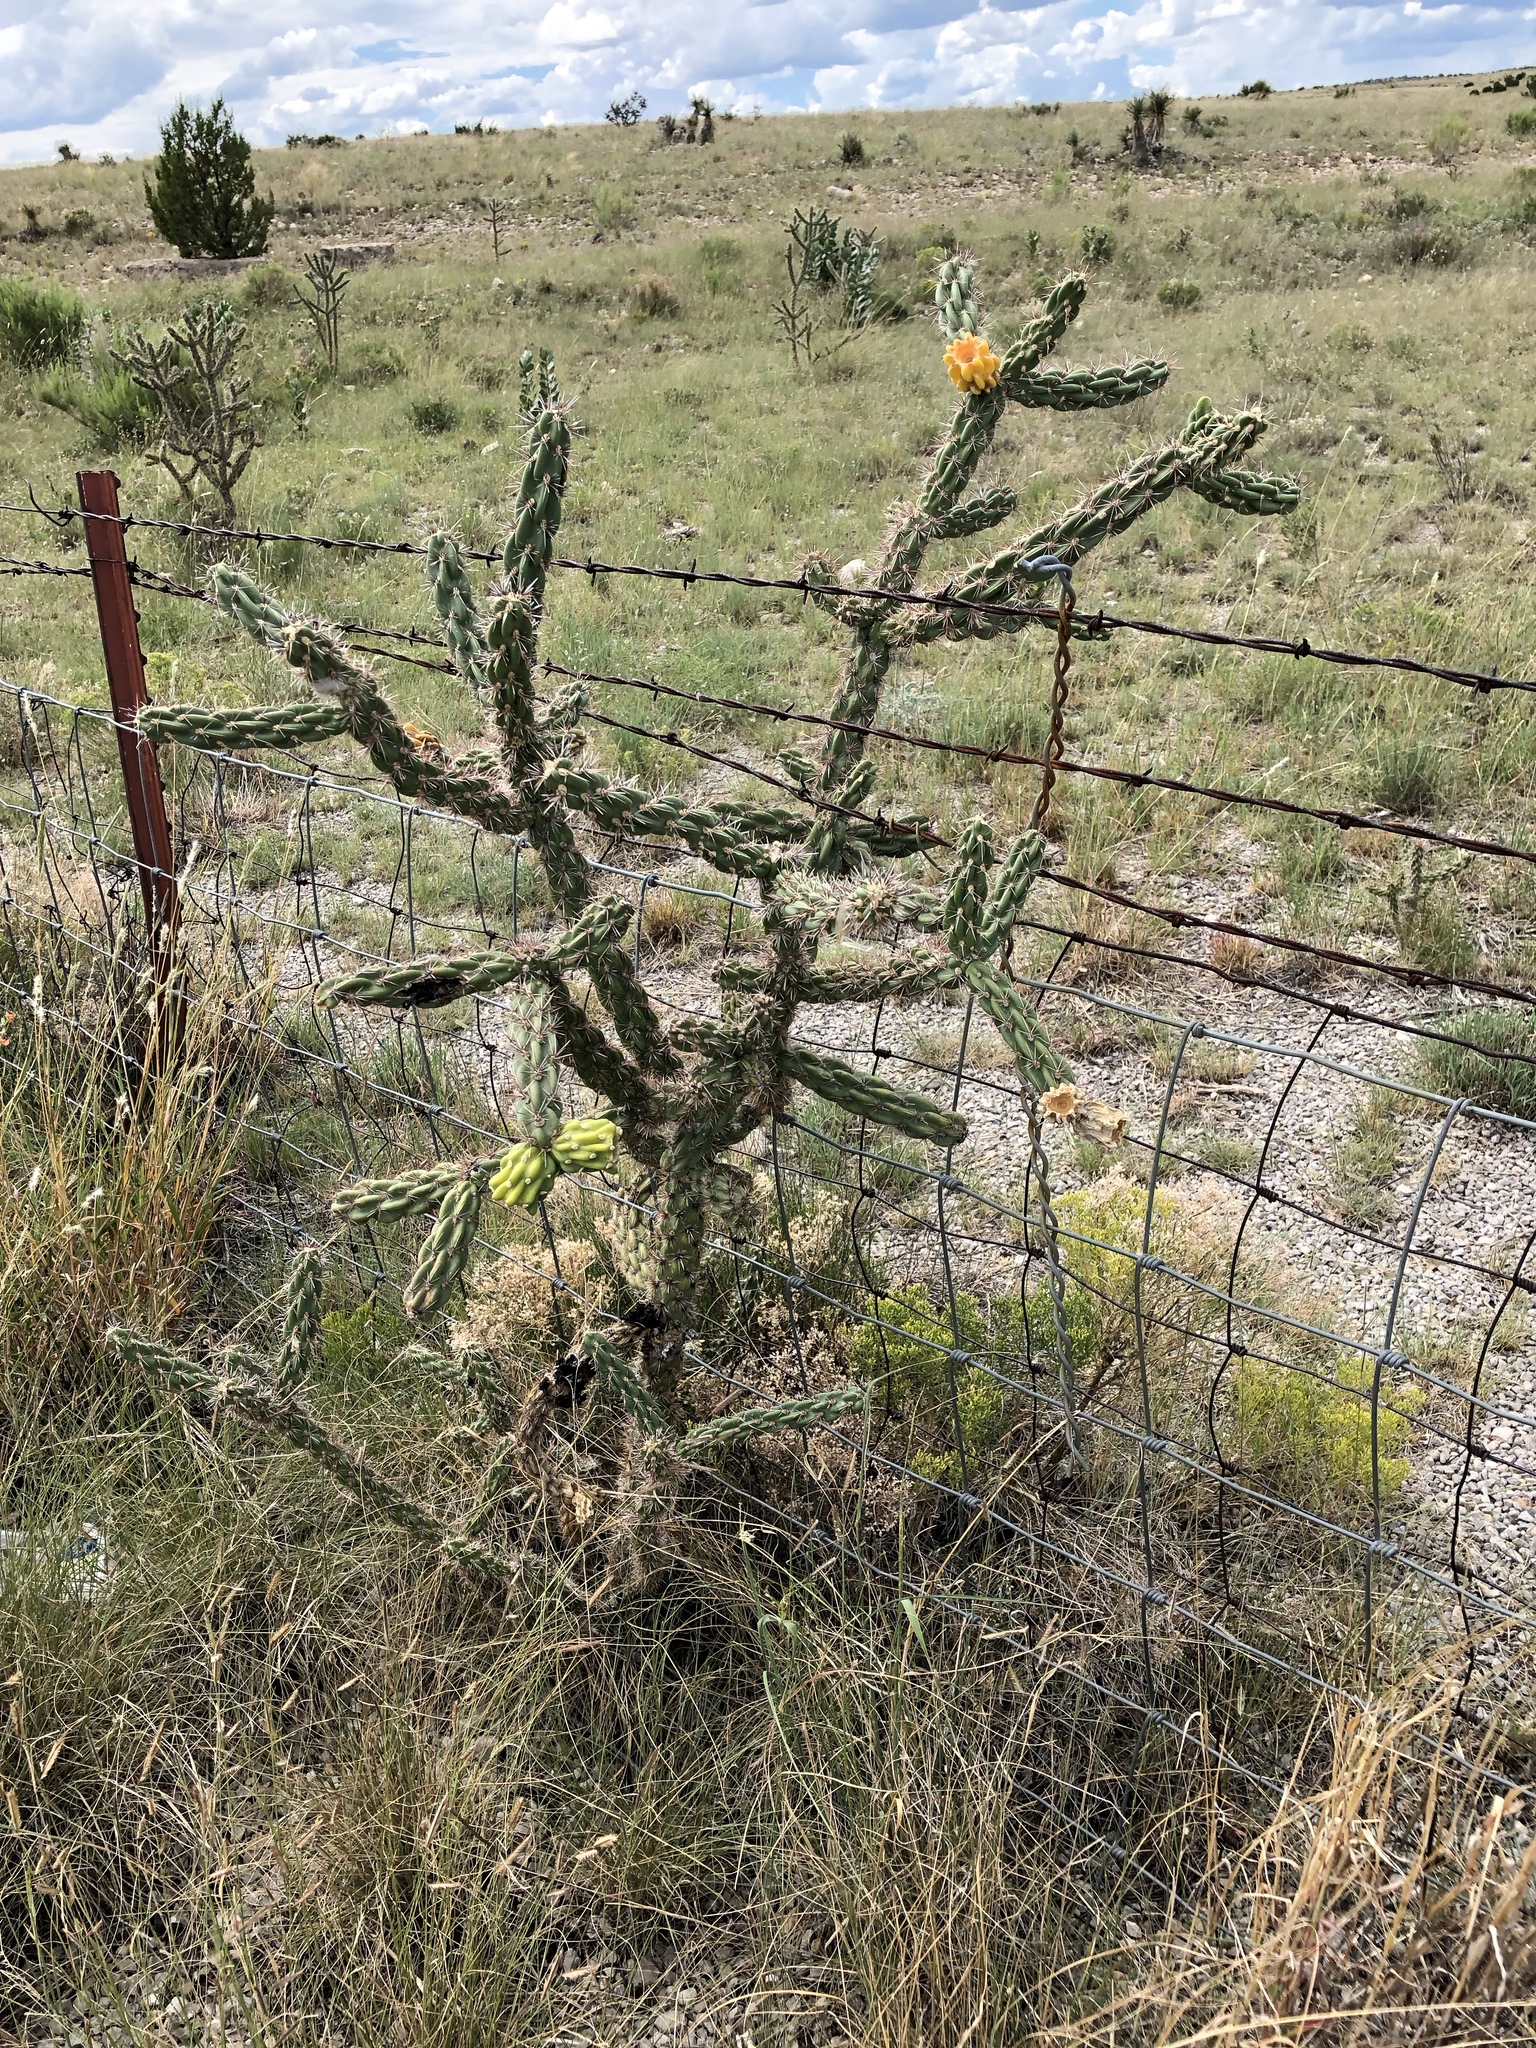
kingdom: Plantae
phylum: Tracheophyta
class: Magnoliopsida
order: Caryophyllales
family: Cactaceae
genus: Cylindropuntia
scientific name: Cylindropuntia imbricata
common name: Candelabrum cactus
